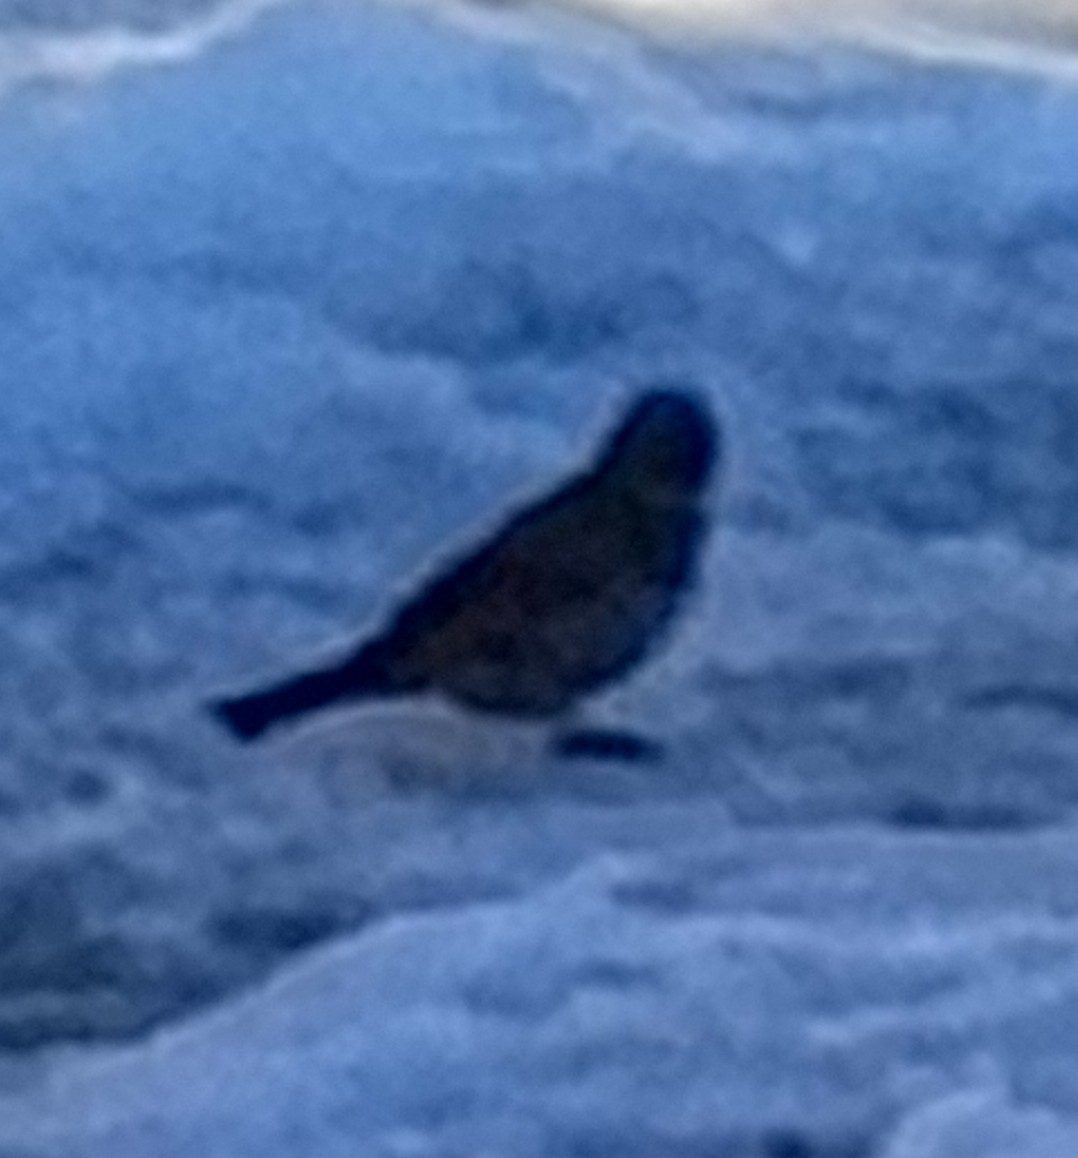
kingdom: Animalia
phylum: Chordata
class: Aves
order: Passeriformes
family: Passeridae
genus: Passer
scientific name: Passer domesticus
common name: House sparrow
